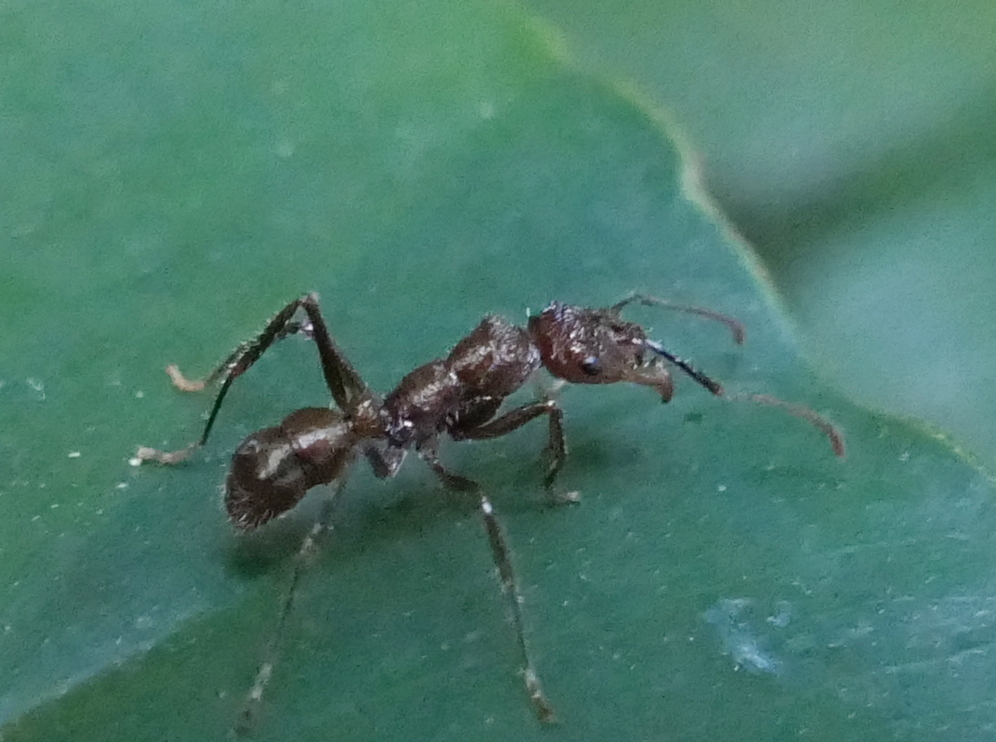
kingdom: Animalia
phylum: Arthropoda
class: Insecta
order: Hymenoptera
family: Formicidae
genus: Ectatomma
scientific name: Ectatomma tuberculatum
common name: Ant
